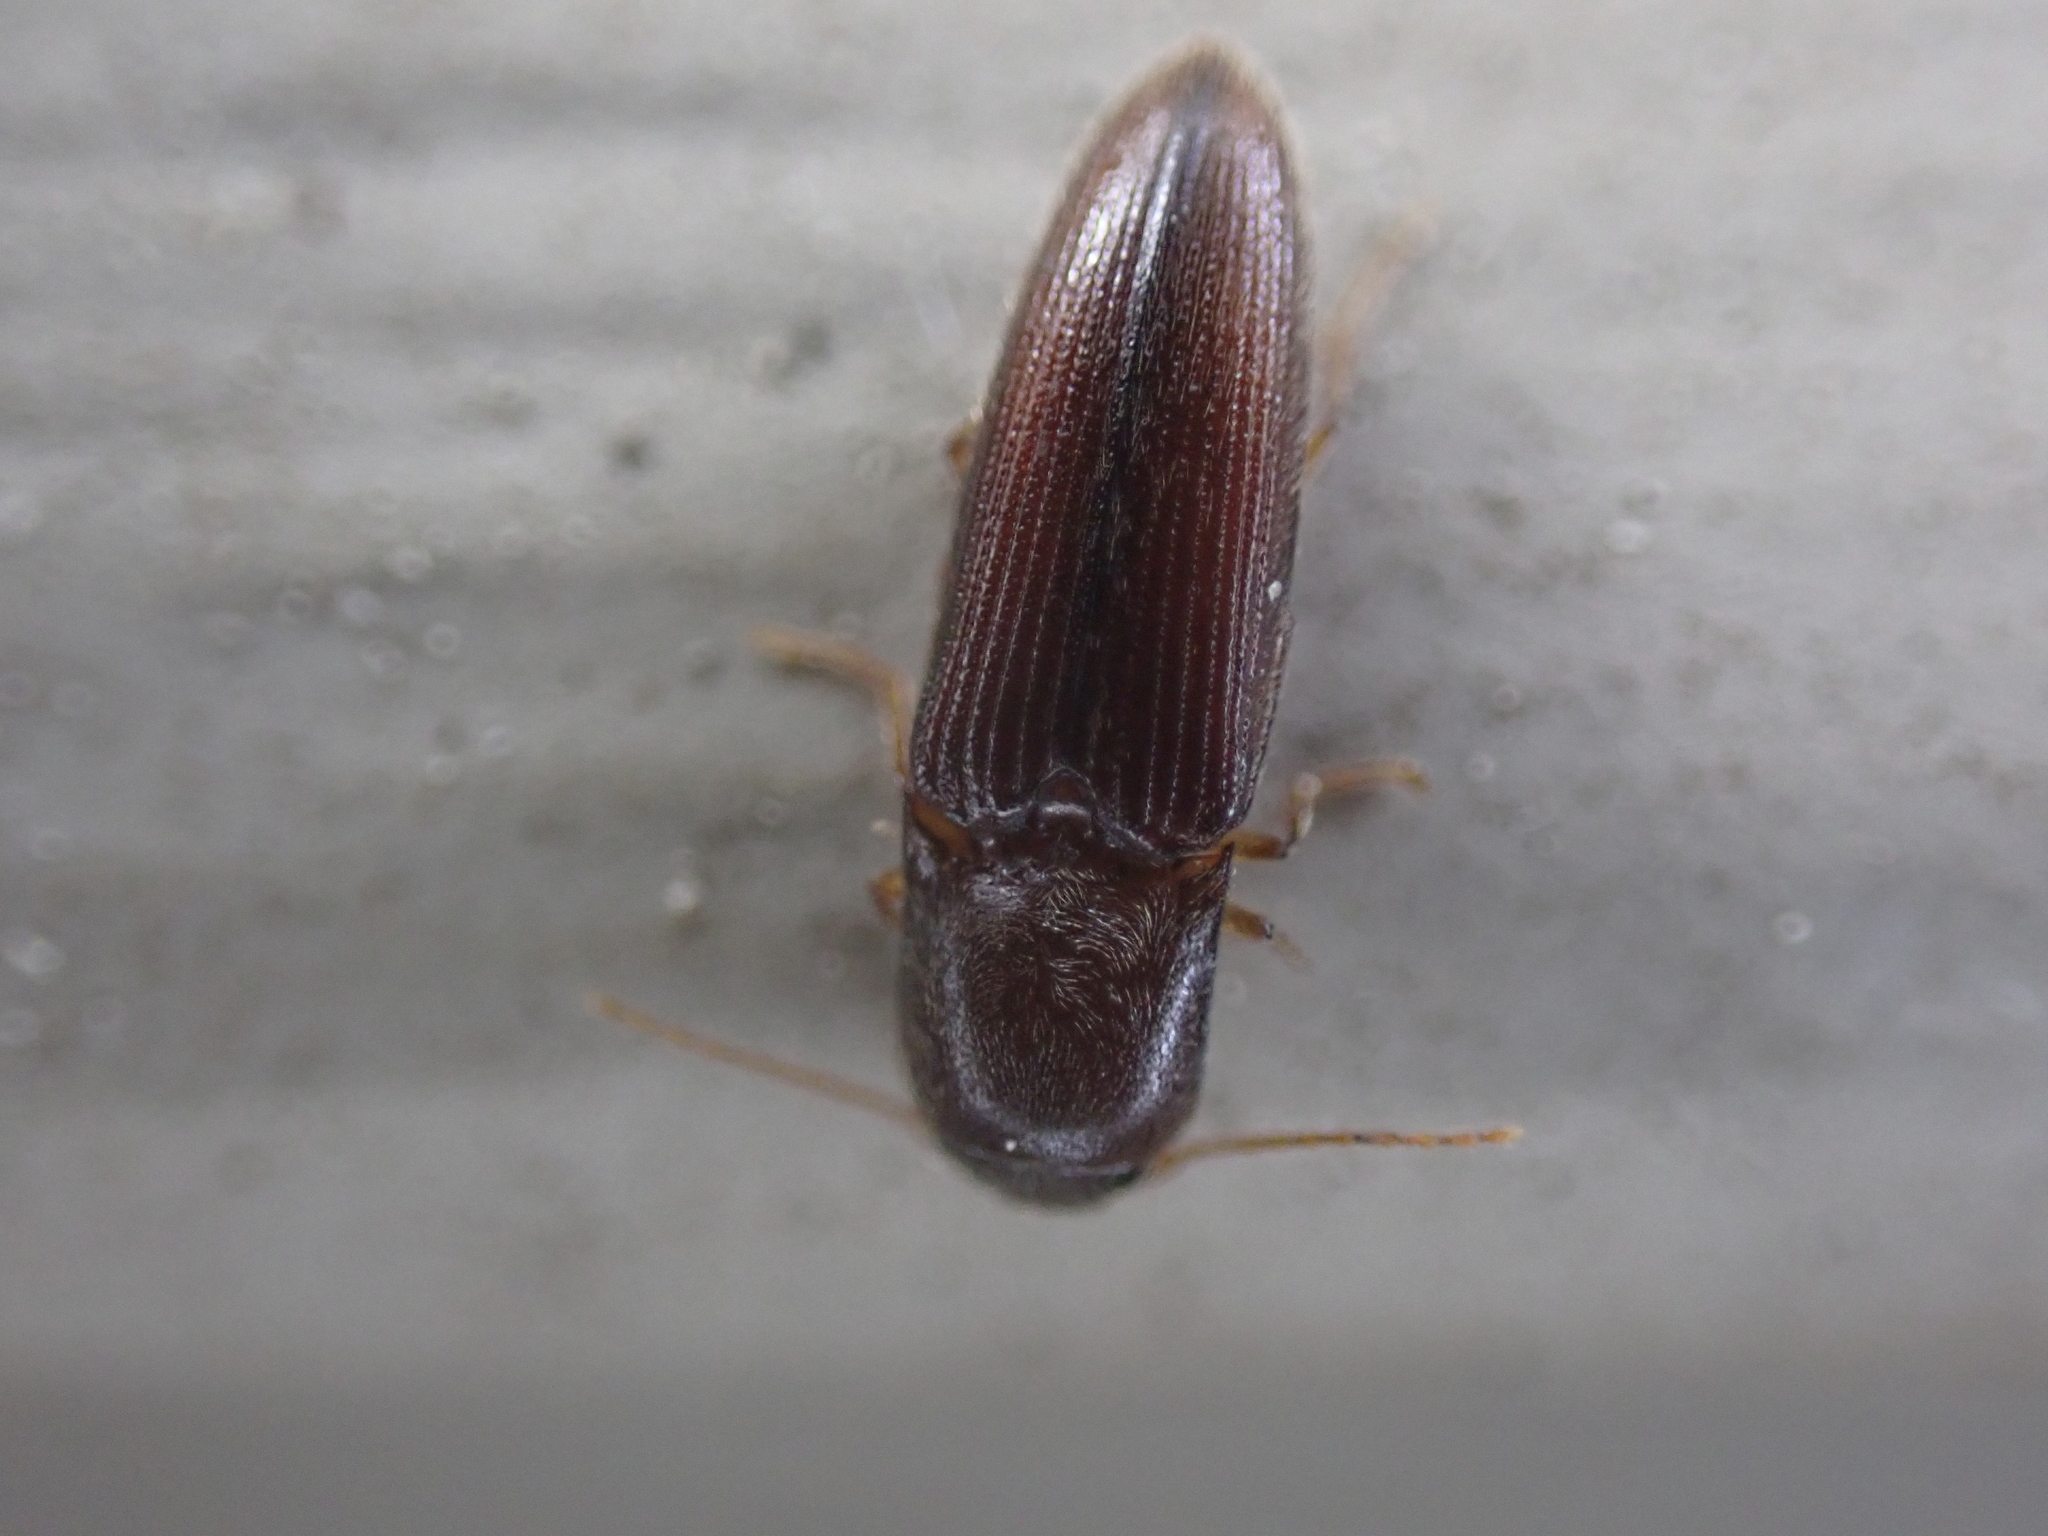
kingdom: Animalia
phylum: Arthropoda
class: Insecta
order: Coleoptera
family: Elateridae
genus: Glyphonyx
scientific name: Glyphonyx
